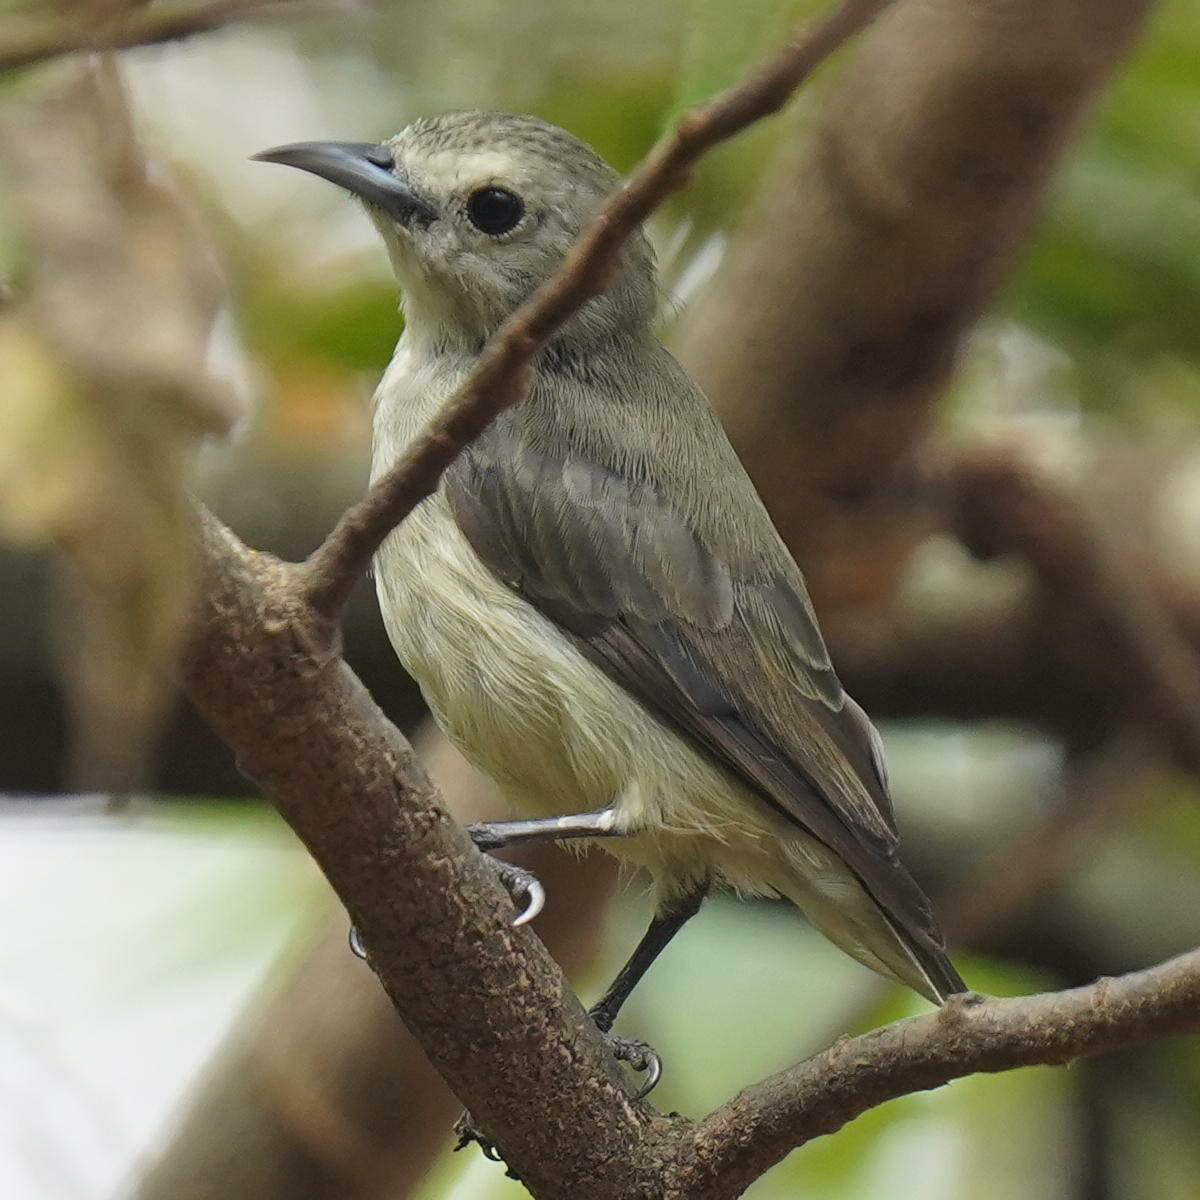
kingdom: Animalia
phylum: Chordata
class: Aves
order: Passeriformes
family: Dicaeidae
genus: Dicaeum
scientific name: Dicaeum concolor
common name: Nilgiri flowerpecker
